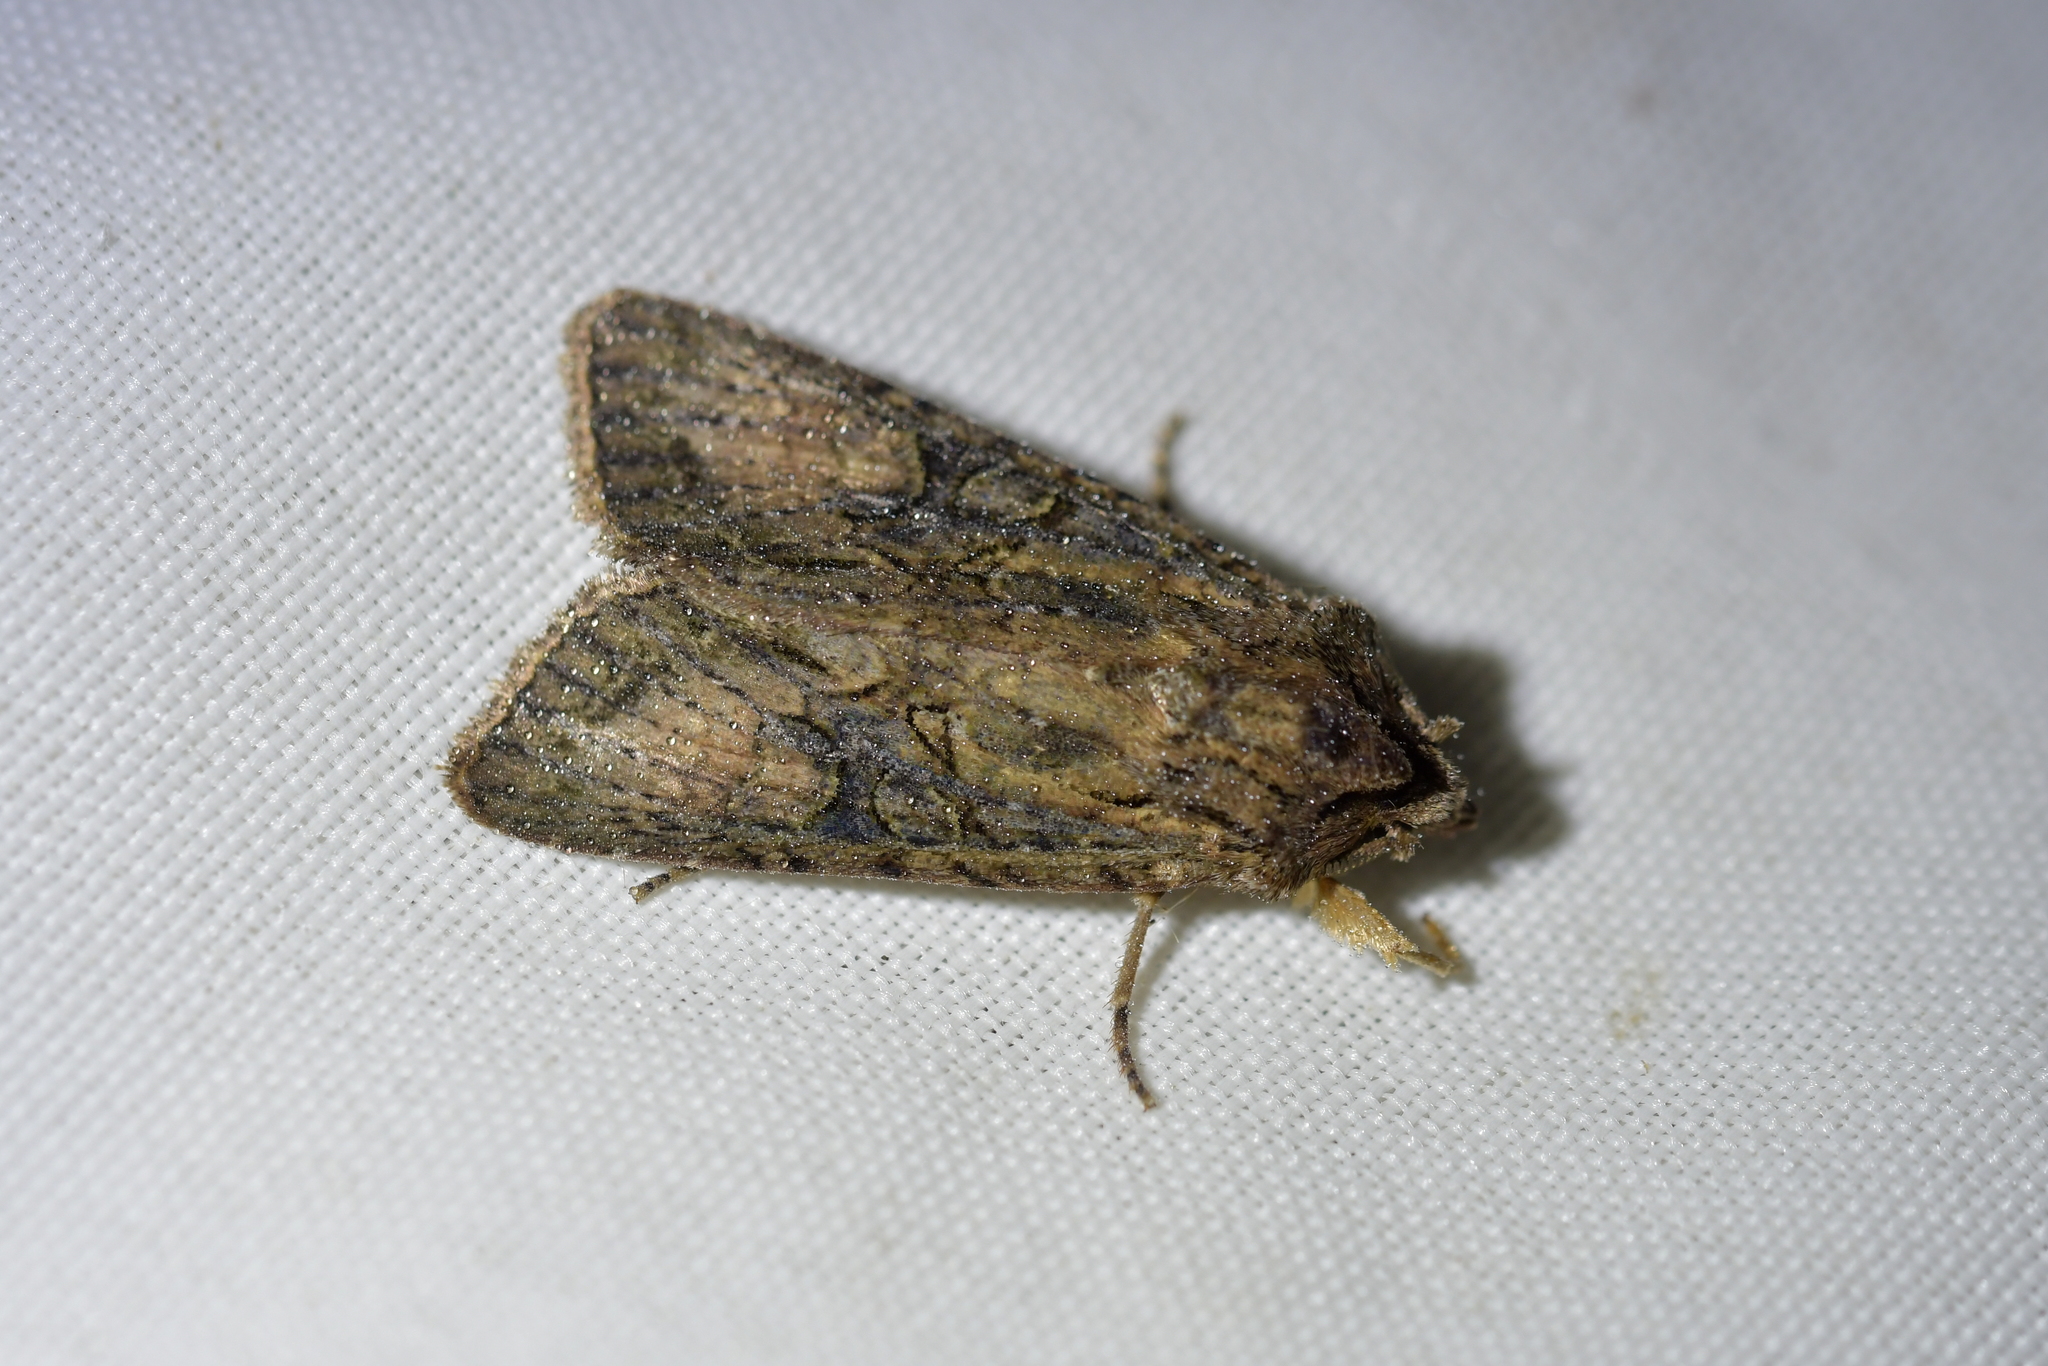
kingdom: Animalia
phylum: Arthropoda
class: Insecta
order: Lepidoptera
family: Noctuidae
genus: Ichneutica
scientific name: Ichneutica mutans
